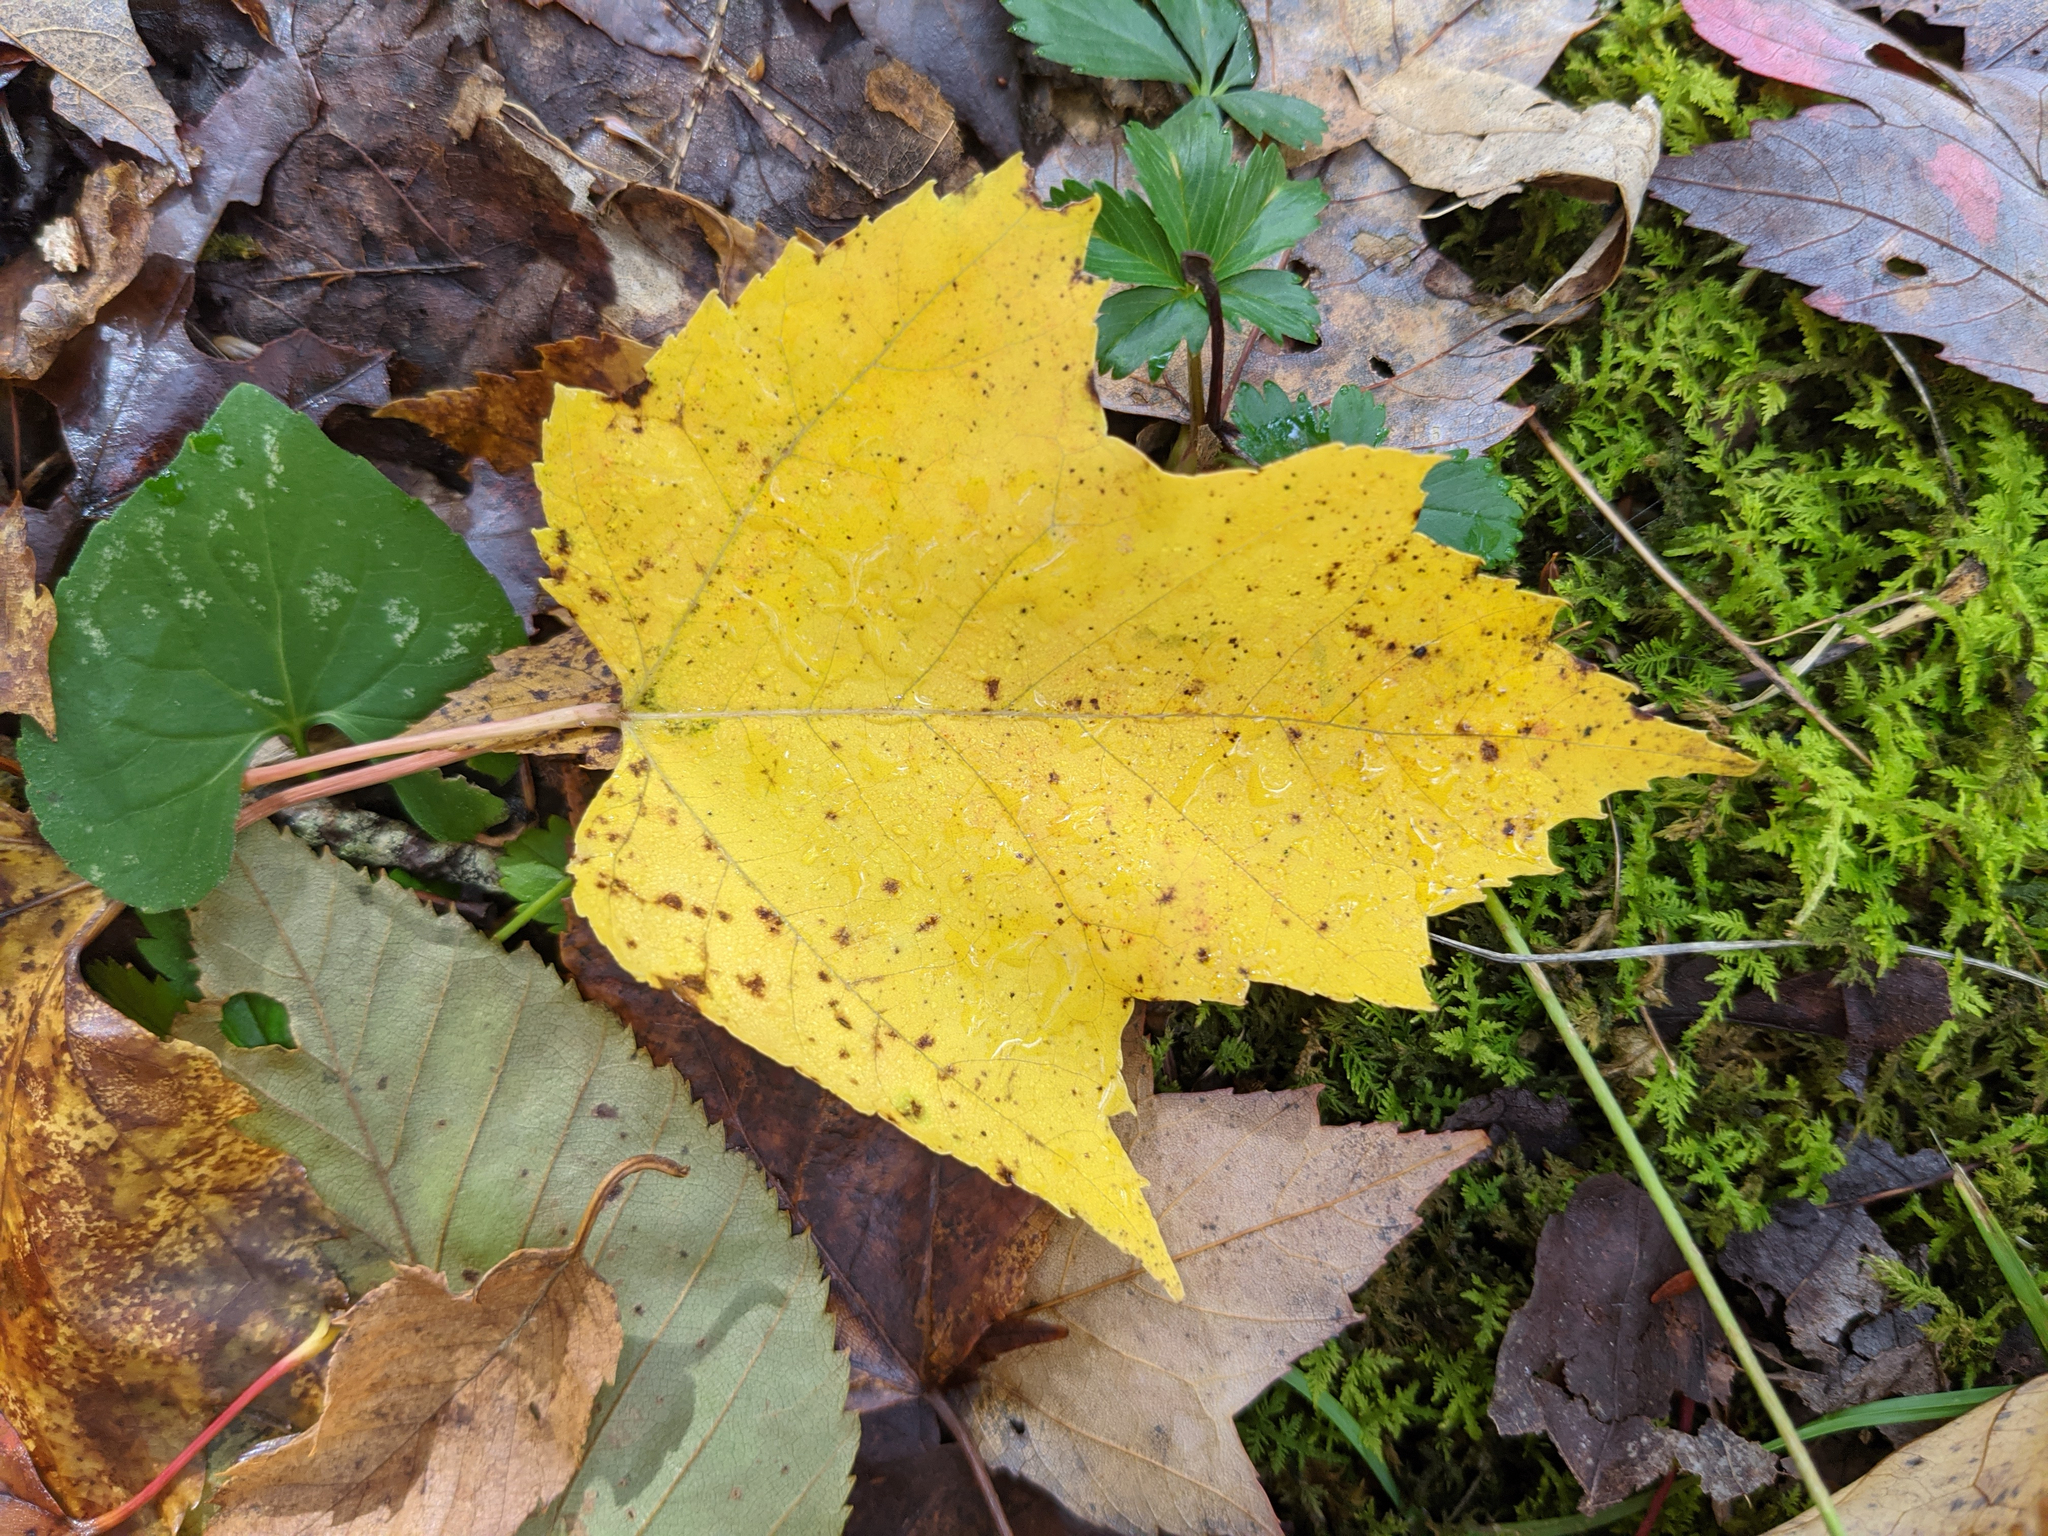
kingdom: Plantae
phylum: Tracheophyta
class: Magnoliopsida
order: Sapindales
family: Sapindaceae
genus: Acer
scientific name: Acer rubrum
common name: Red maple
